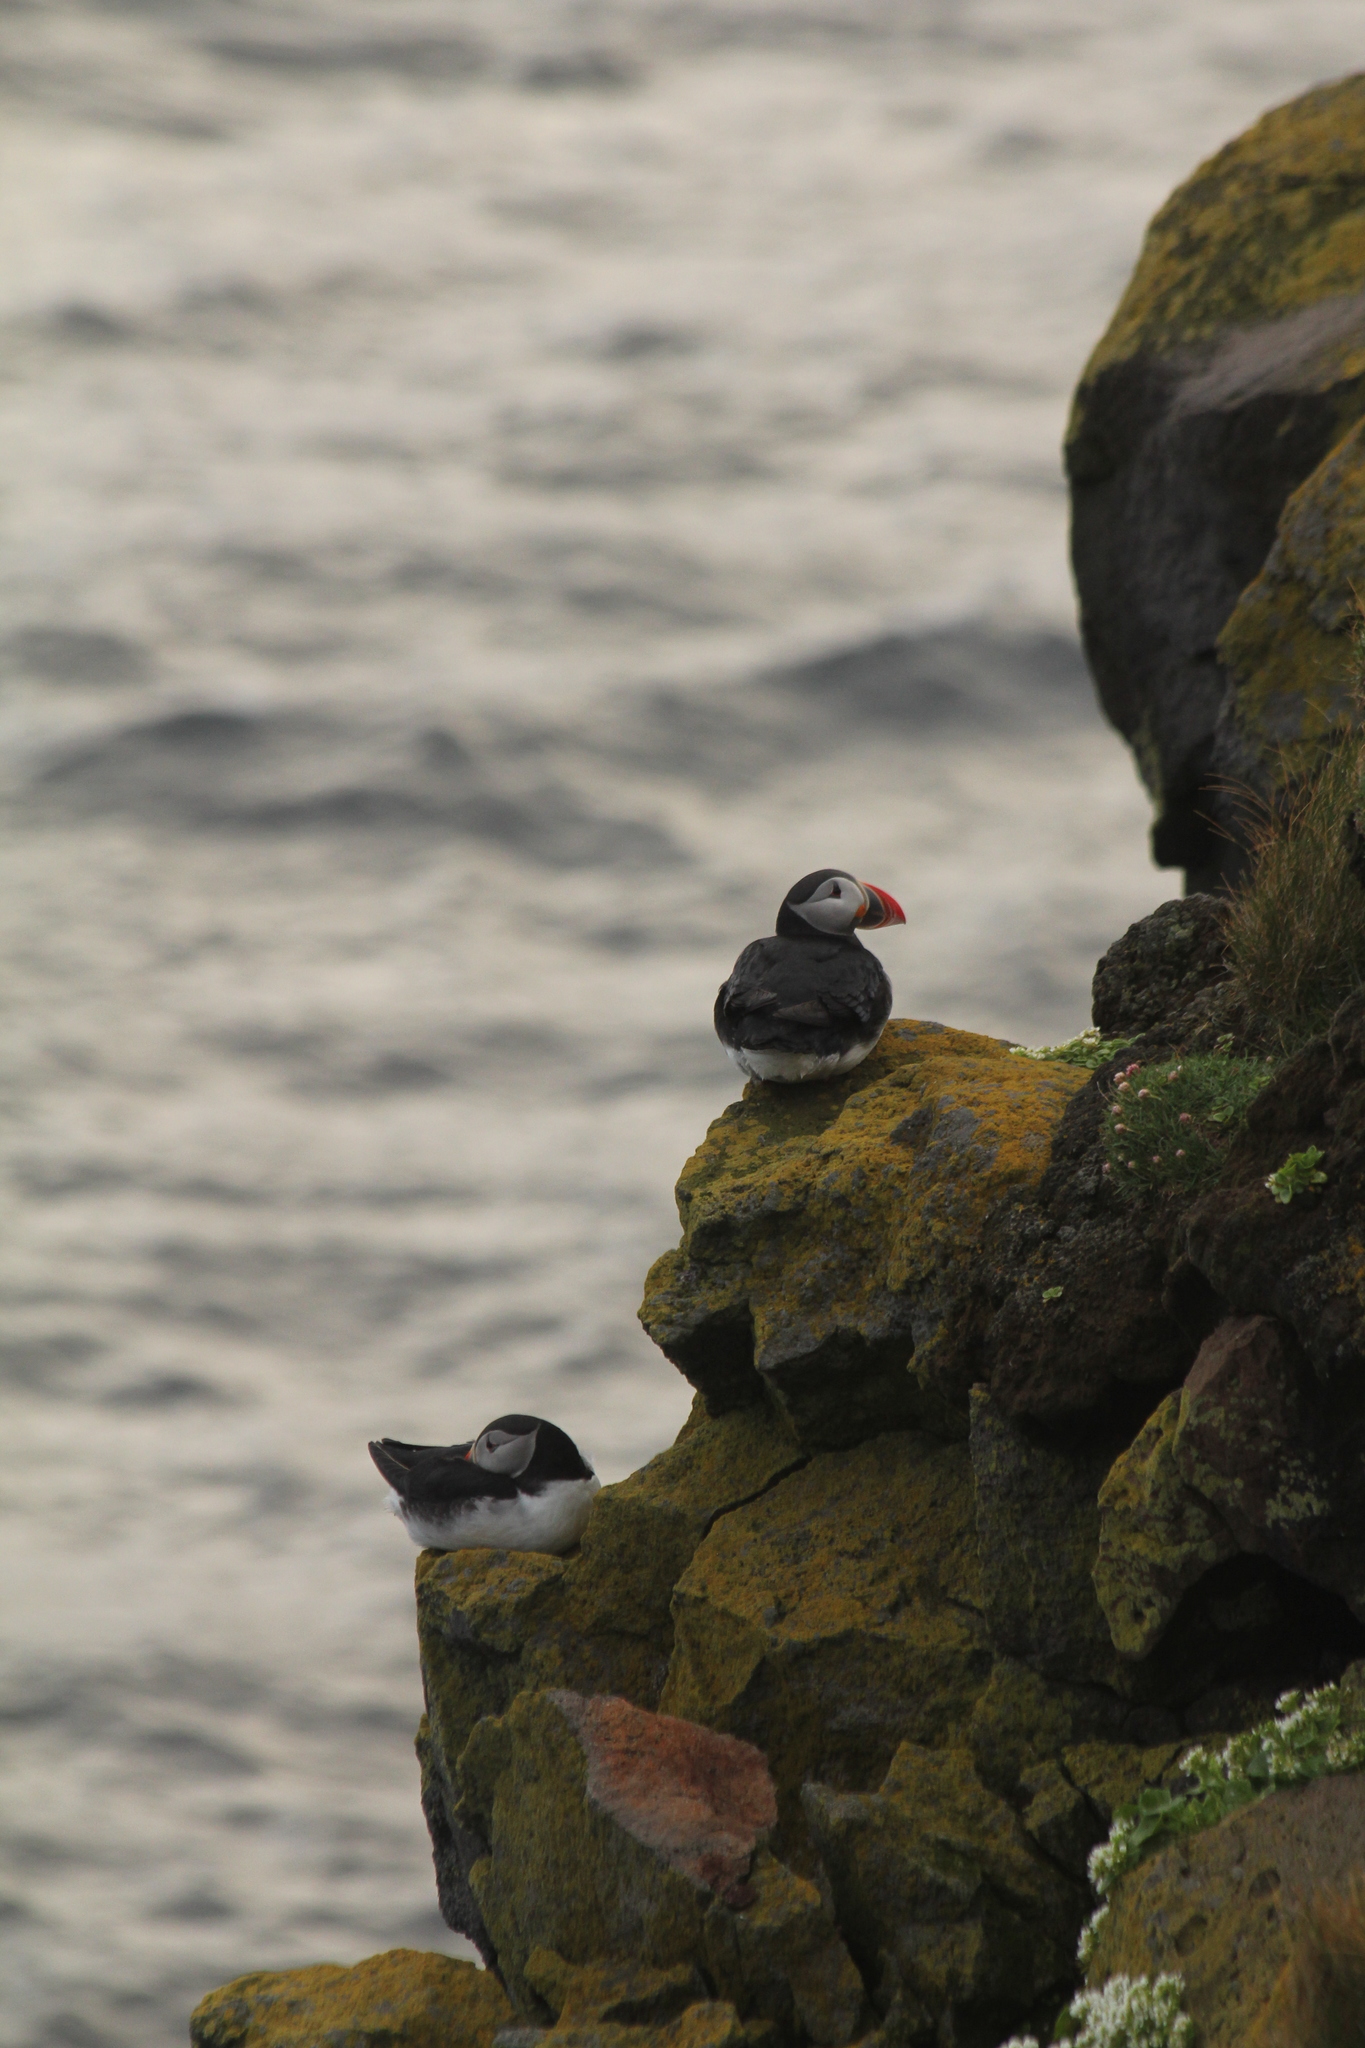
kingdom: Animalia
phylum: Chordata
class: Aves
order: Charadriiformes
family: Alcidae
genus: Fratercula
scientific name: Fratercula arctica
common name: Atlantic puffin
